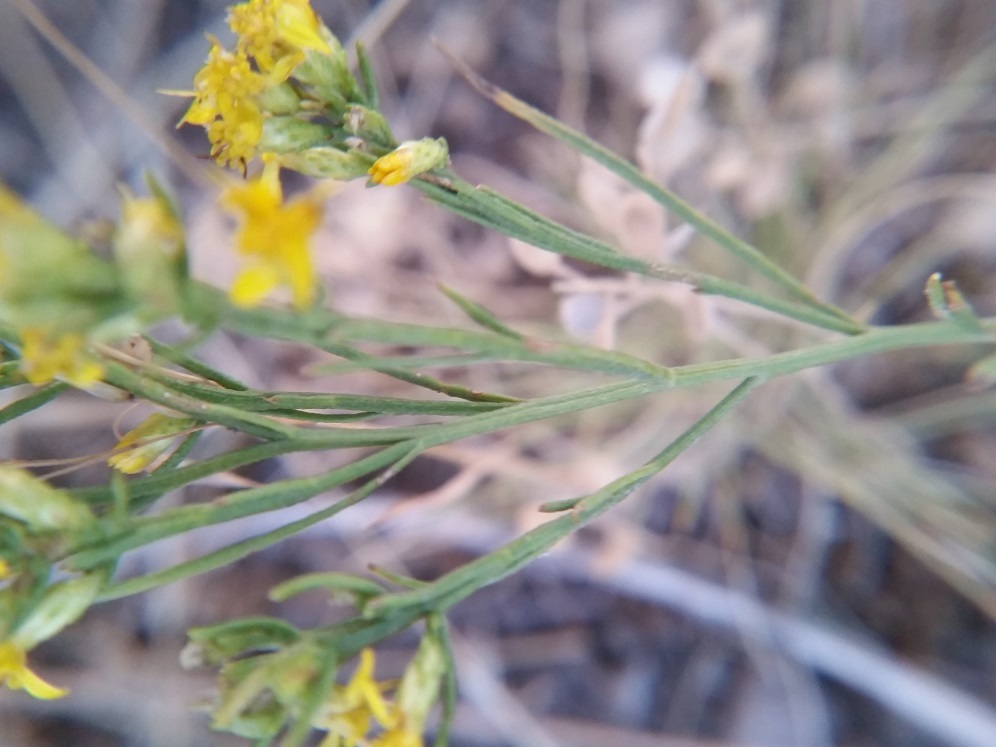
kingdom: Plantae
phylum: Tracheophyta
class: Magnoliopsida
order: Asterales
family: Asteraceae
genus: Gutierrezia
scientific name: Gutierrezia sarothrae
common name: Broom snakeweed
